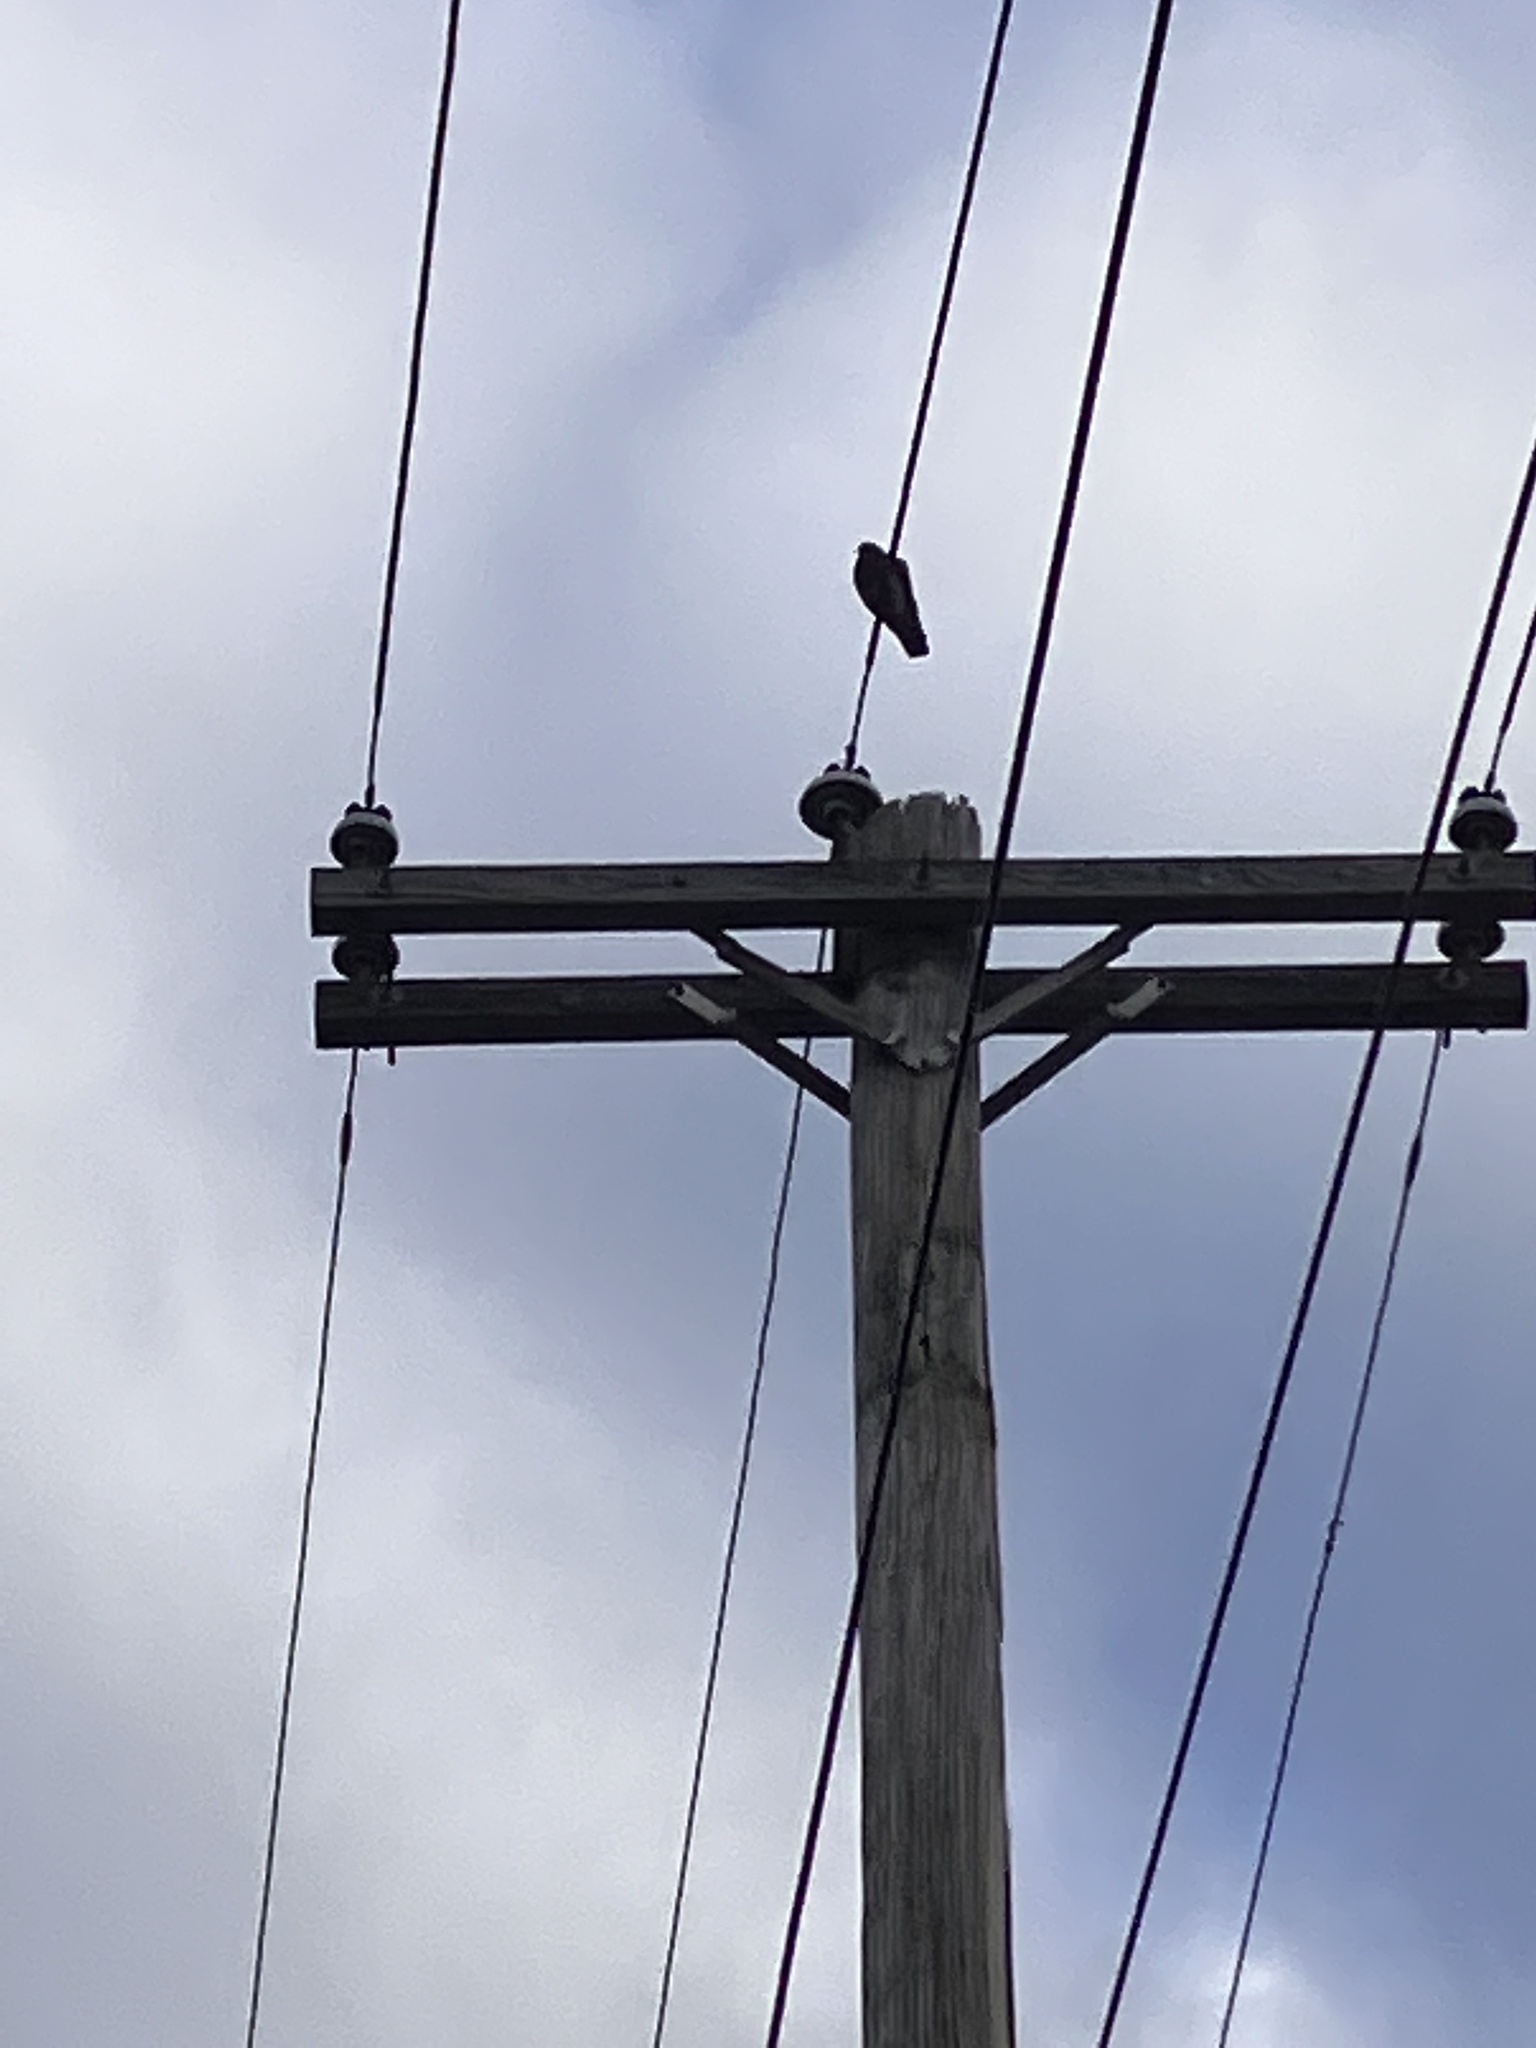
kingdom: Animalia
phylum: Chordata
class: Aves
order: Columbiformes
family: Columbidae
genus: Columba
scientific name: Columba livia
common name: Rock pigeon
